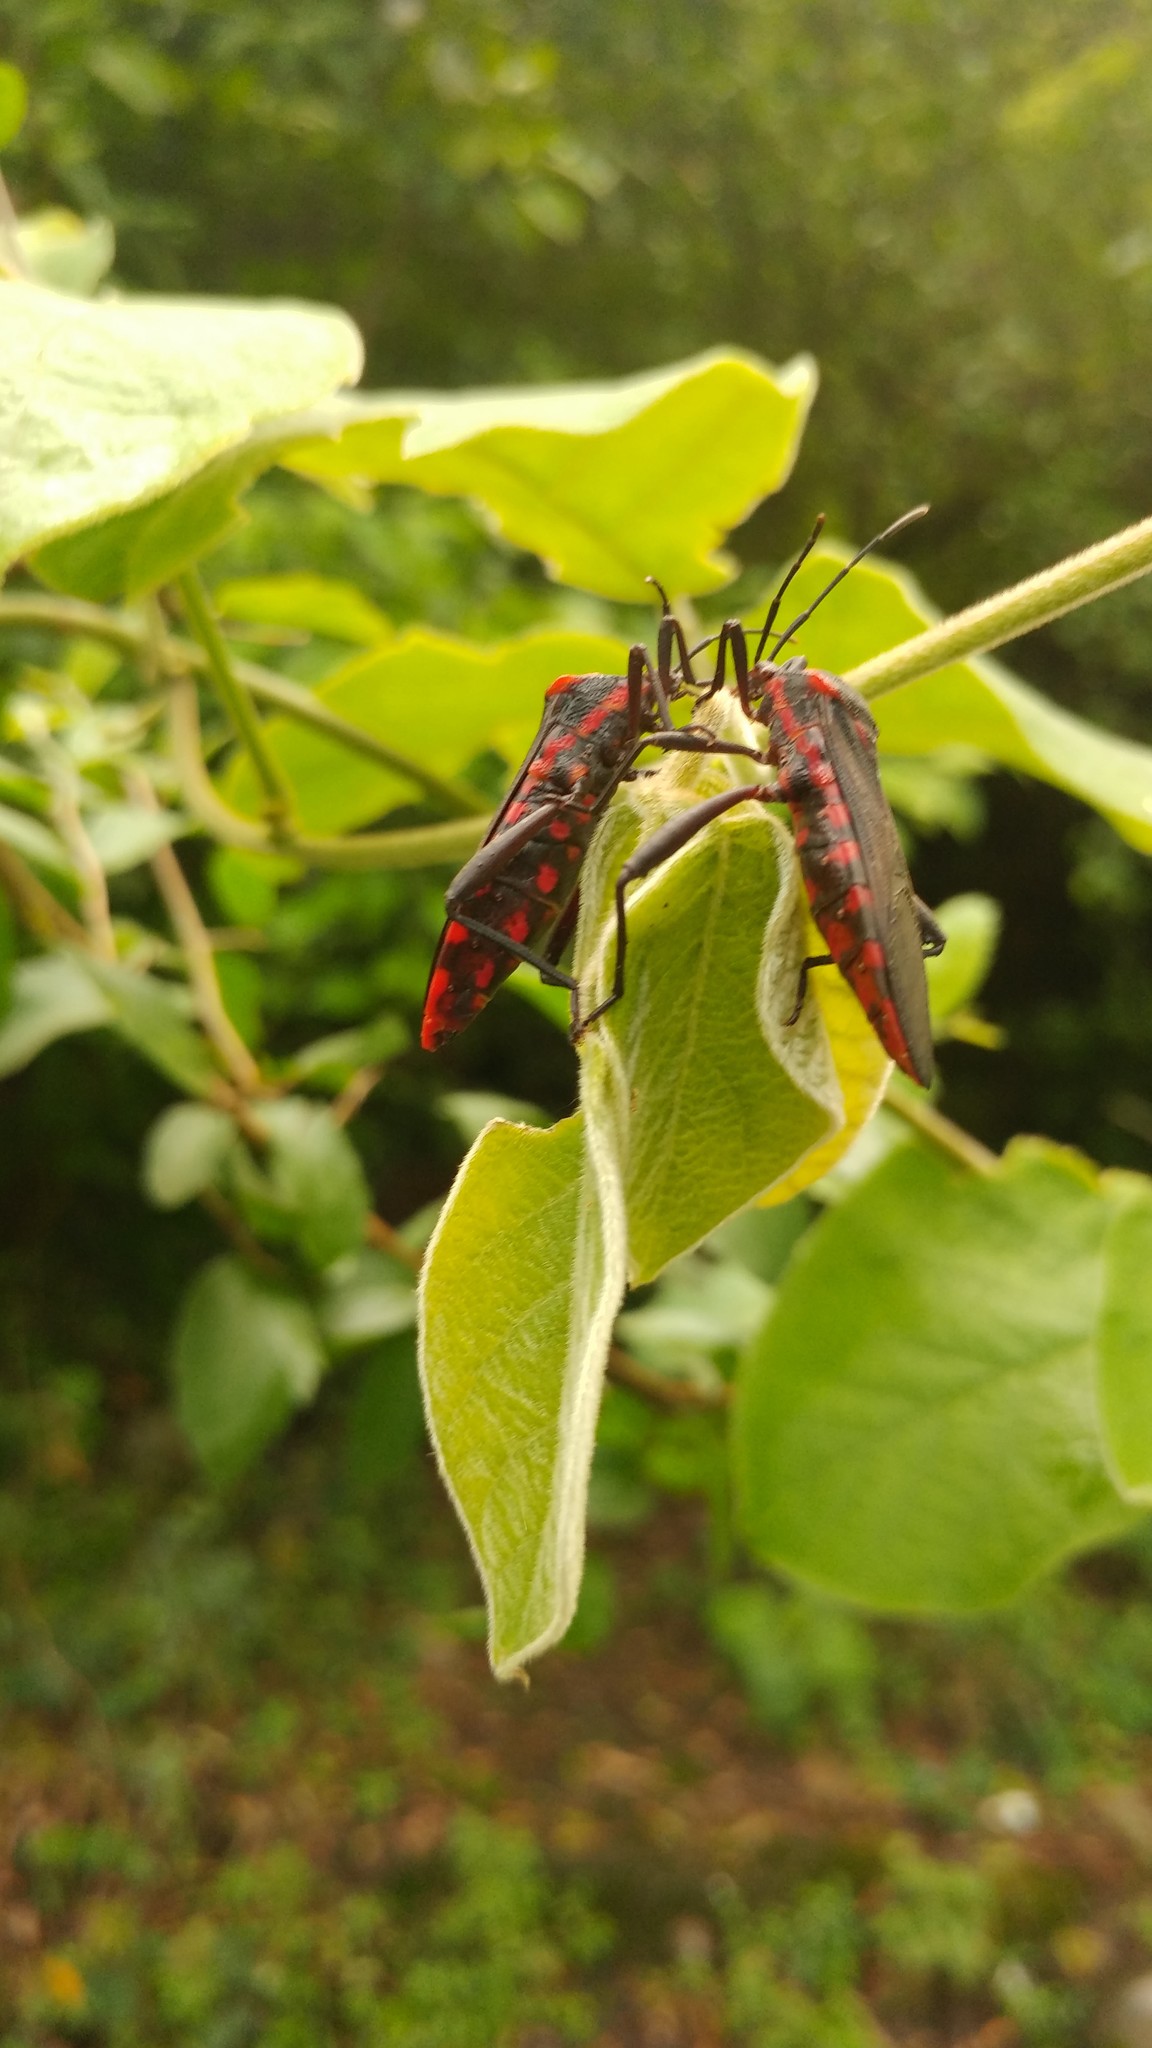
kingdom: Animalia
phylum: Arthropoda
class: Insecta
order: Hemiptera
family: Coreidae
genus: Piezogaster
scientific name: Piezogaster rubronotatus
